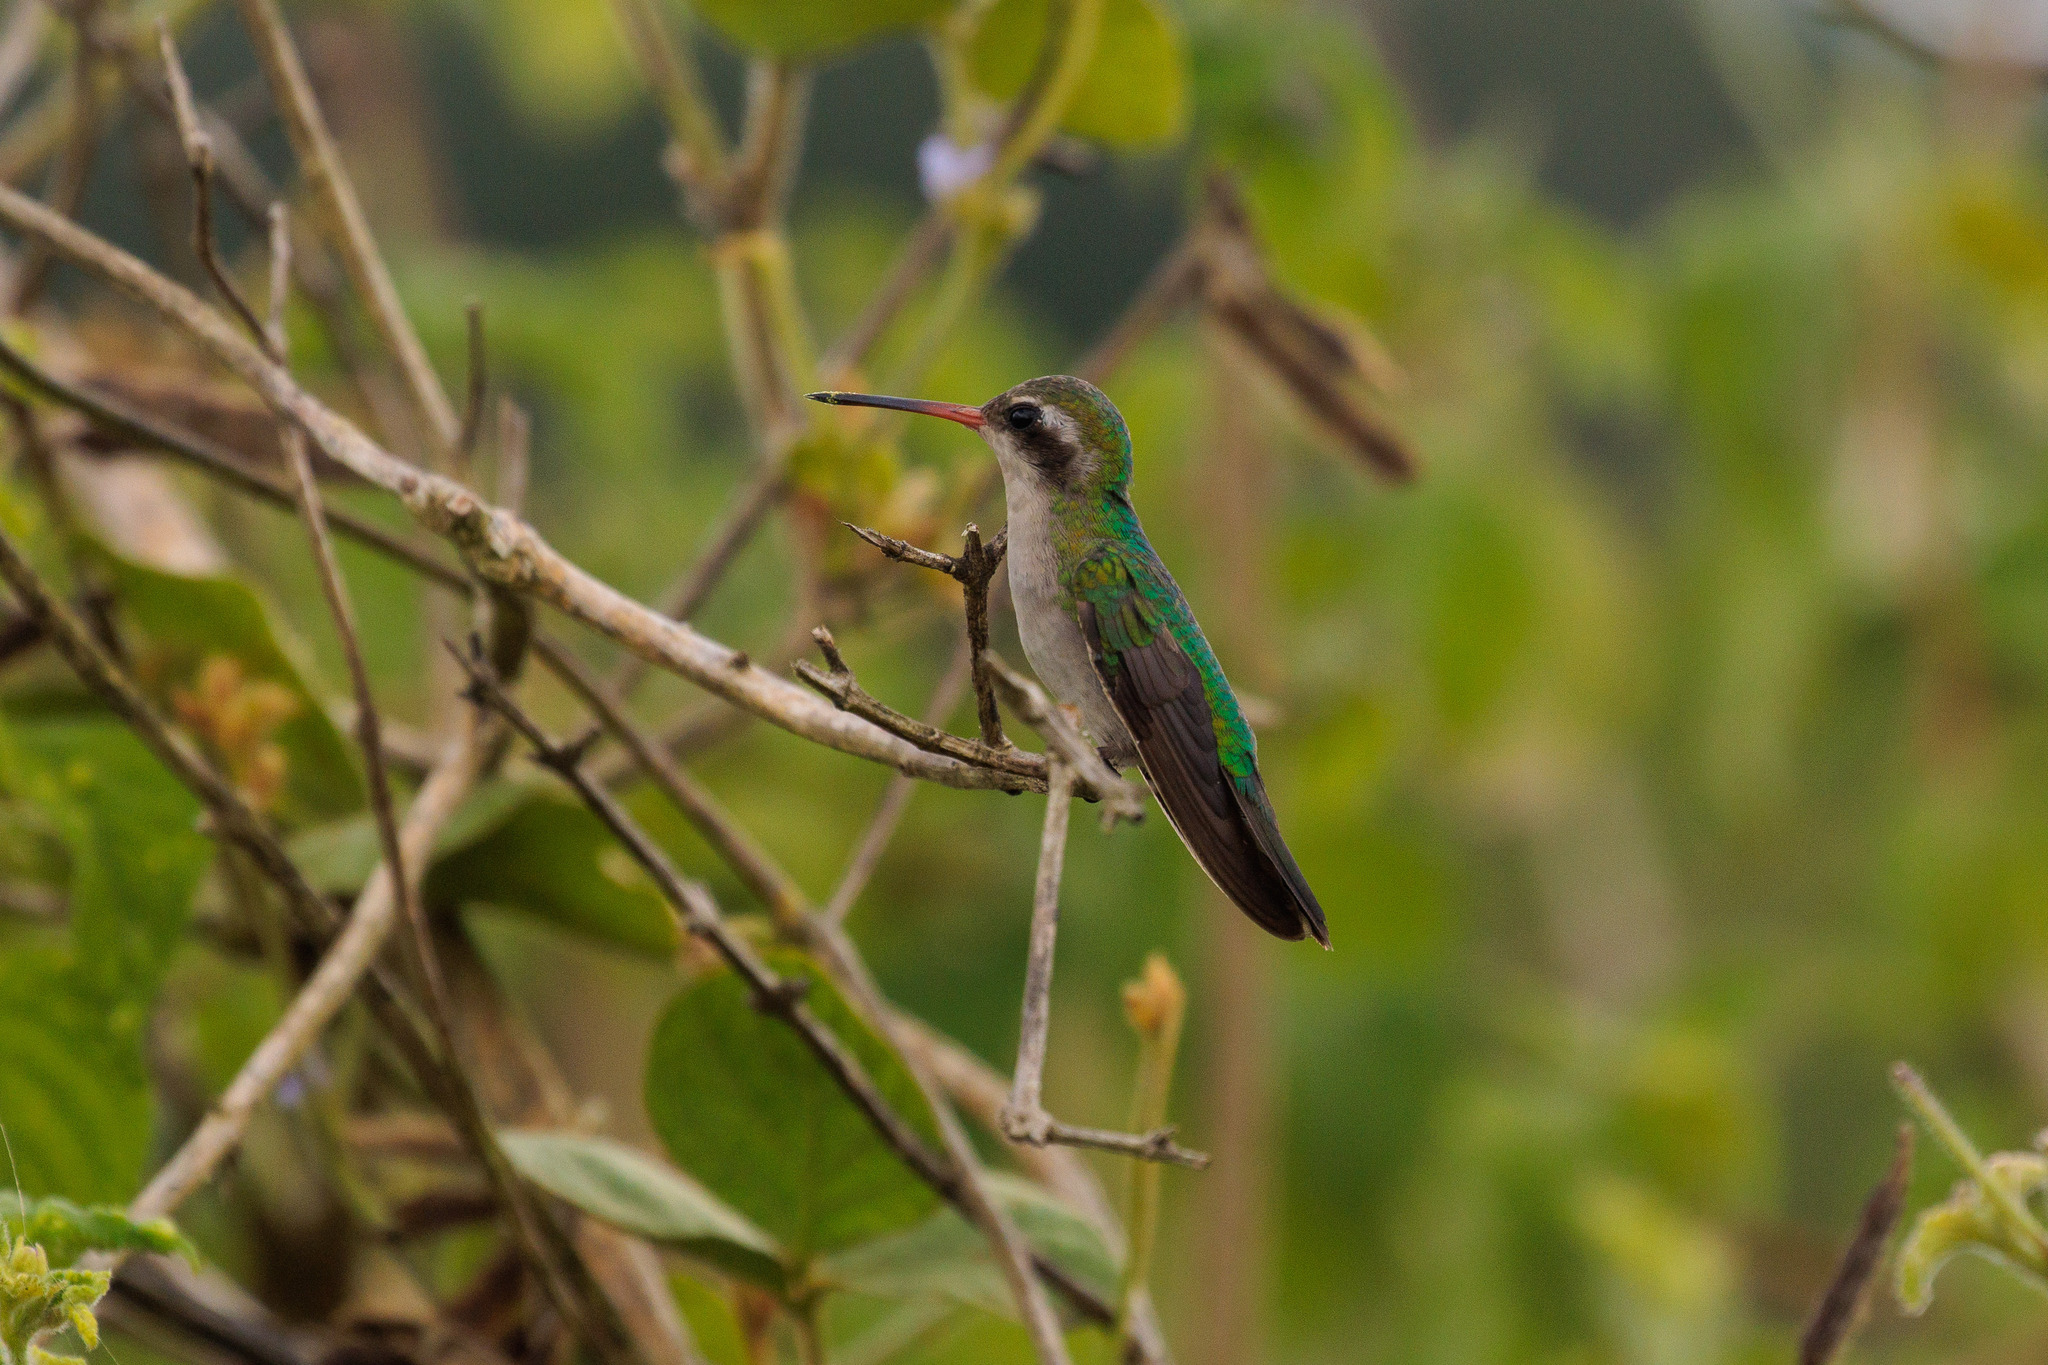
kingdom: Animalia
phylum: Chordata
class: Aves
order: Apodiformes
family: Trochilidae
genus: Chlorostilbon
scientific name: Chlorostilbon lucidus
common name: Glittering-bellied emerald
